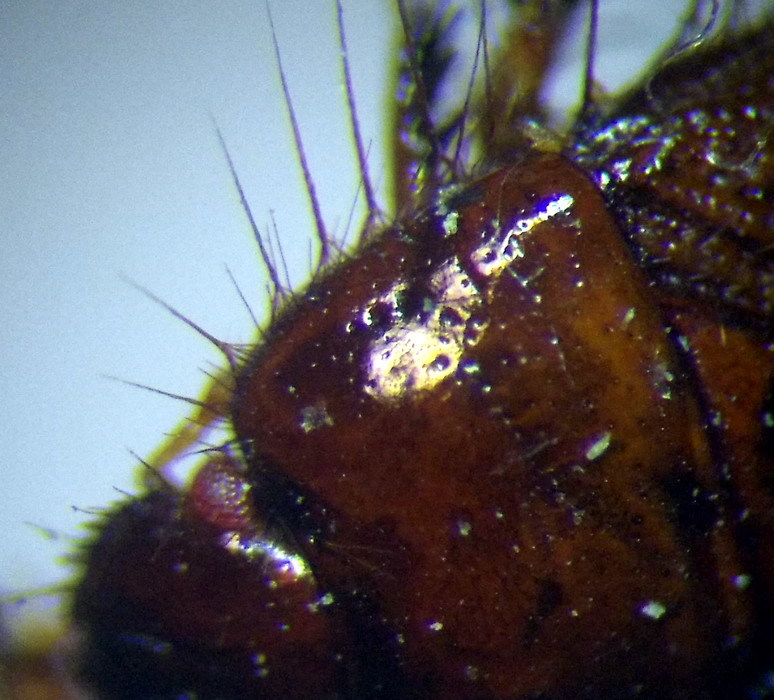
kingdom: Animalia
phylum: Arthropoda
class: Insecta
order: Hemiptera
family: Cydnidae
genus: Byrsinus
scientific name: Byrsinus fossor
